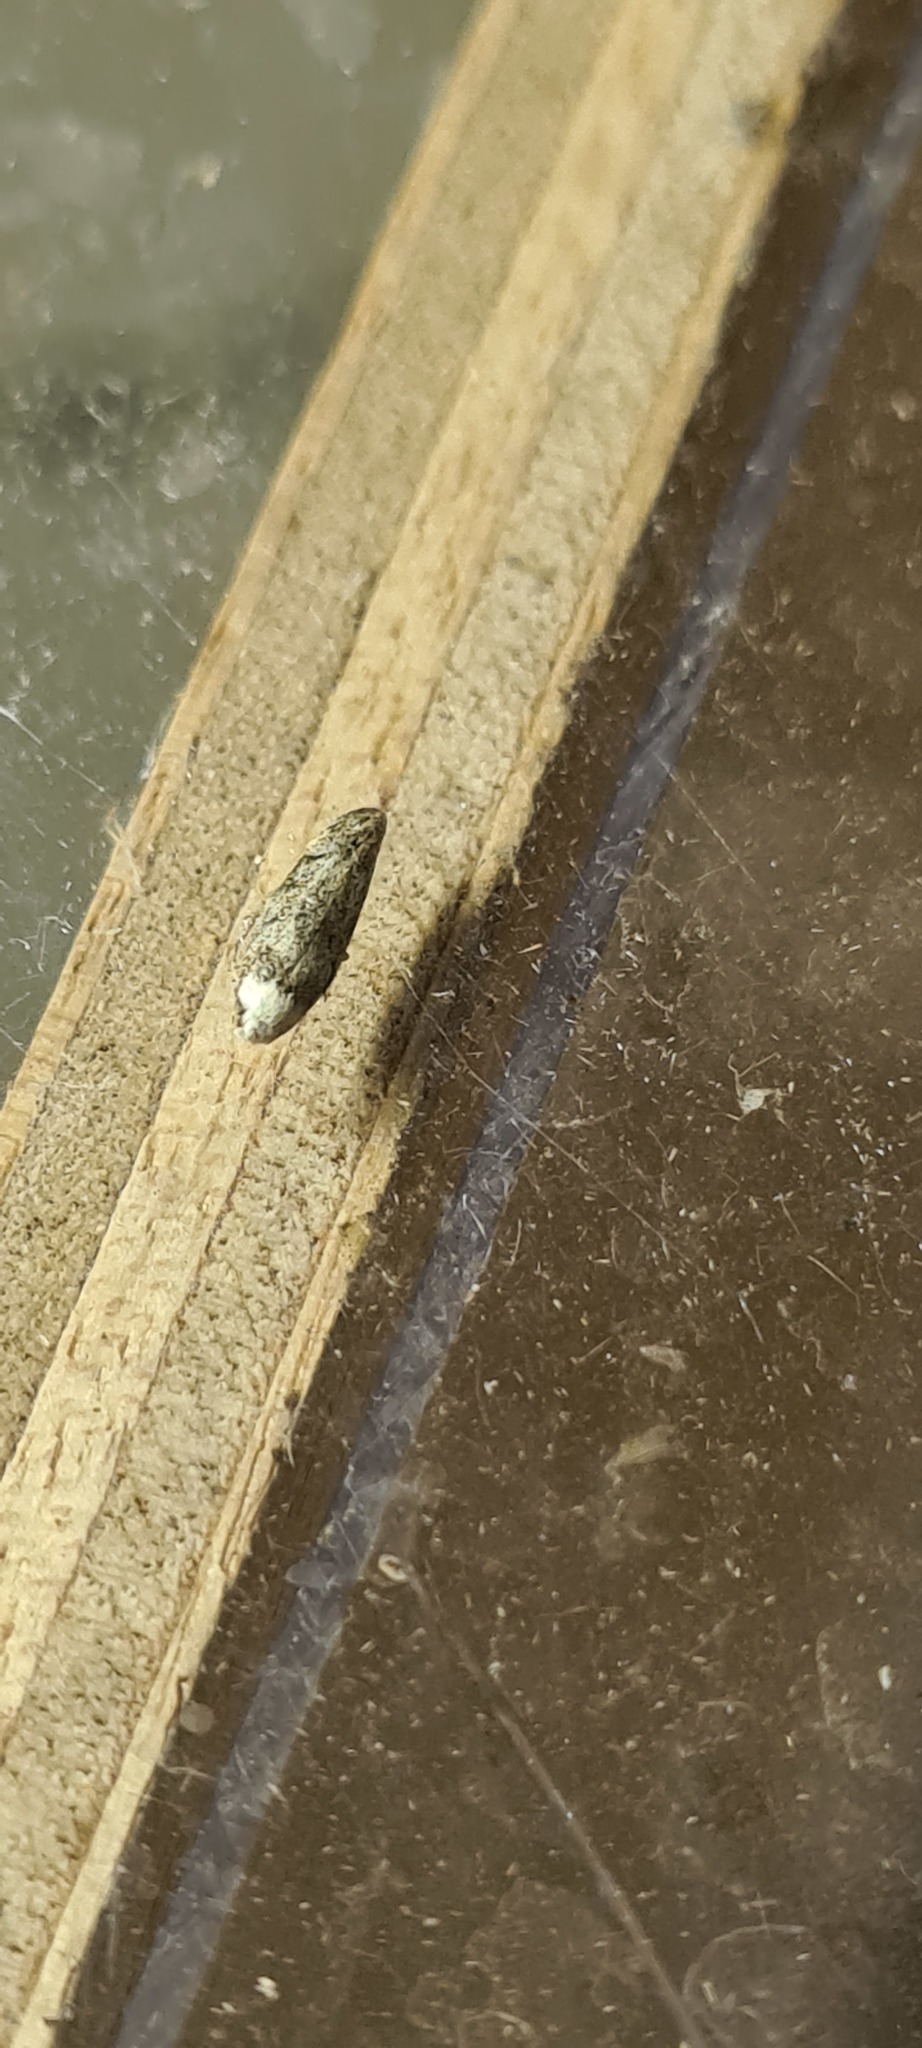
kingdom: Animalia
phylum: Arthropoda
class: Insecta
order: Lepidoptera
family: Oecophoridae
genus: Endrosis
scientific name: Endrosis sarcitrella
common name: White-shouldered house moth
